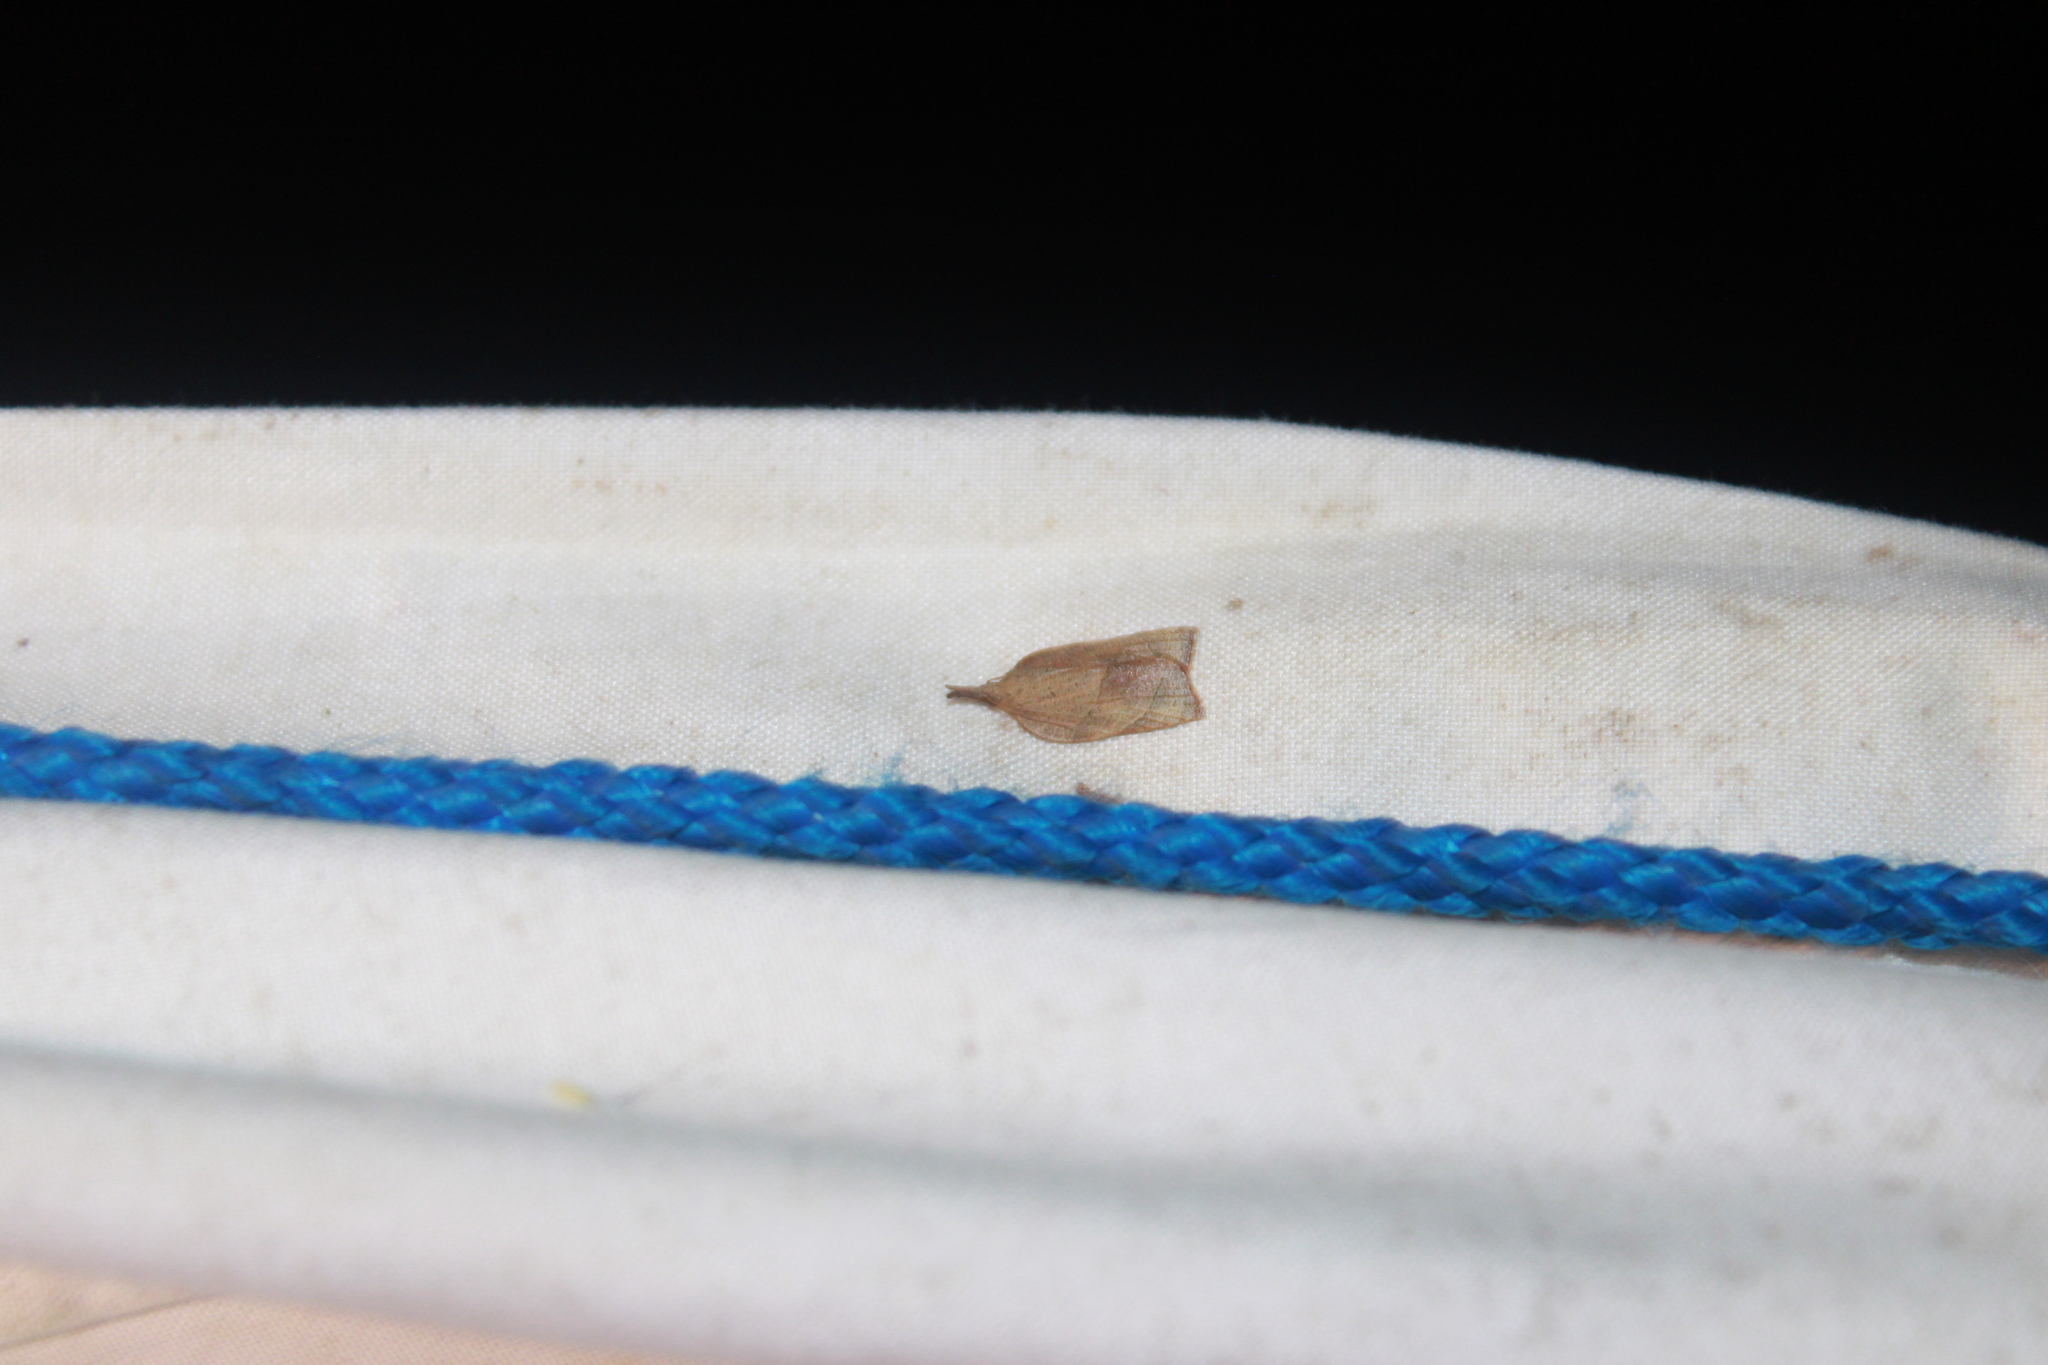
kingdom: Animalia
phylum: Arthropoda
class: Insecta
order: Lepidoptera
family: Tortricidae
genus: Platynota
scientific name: Platynota rostrana
